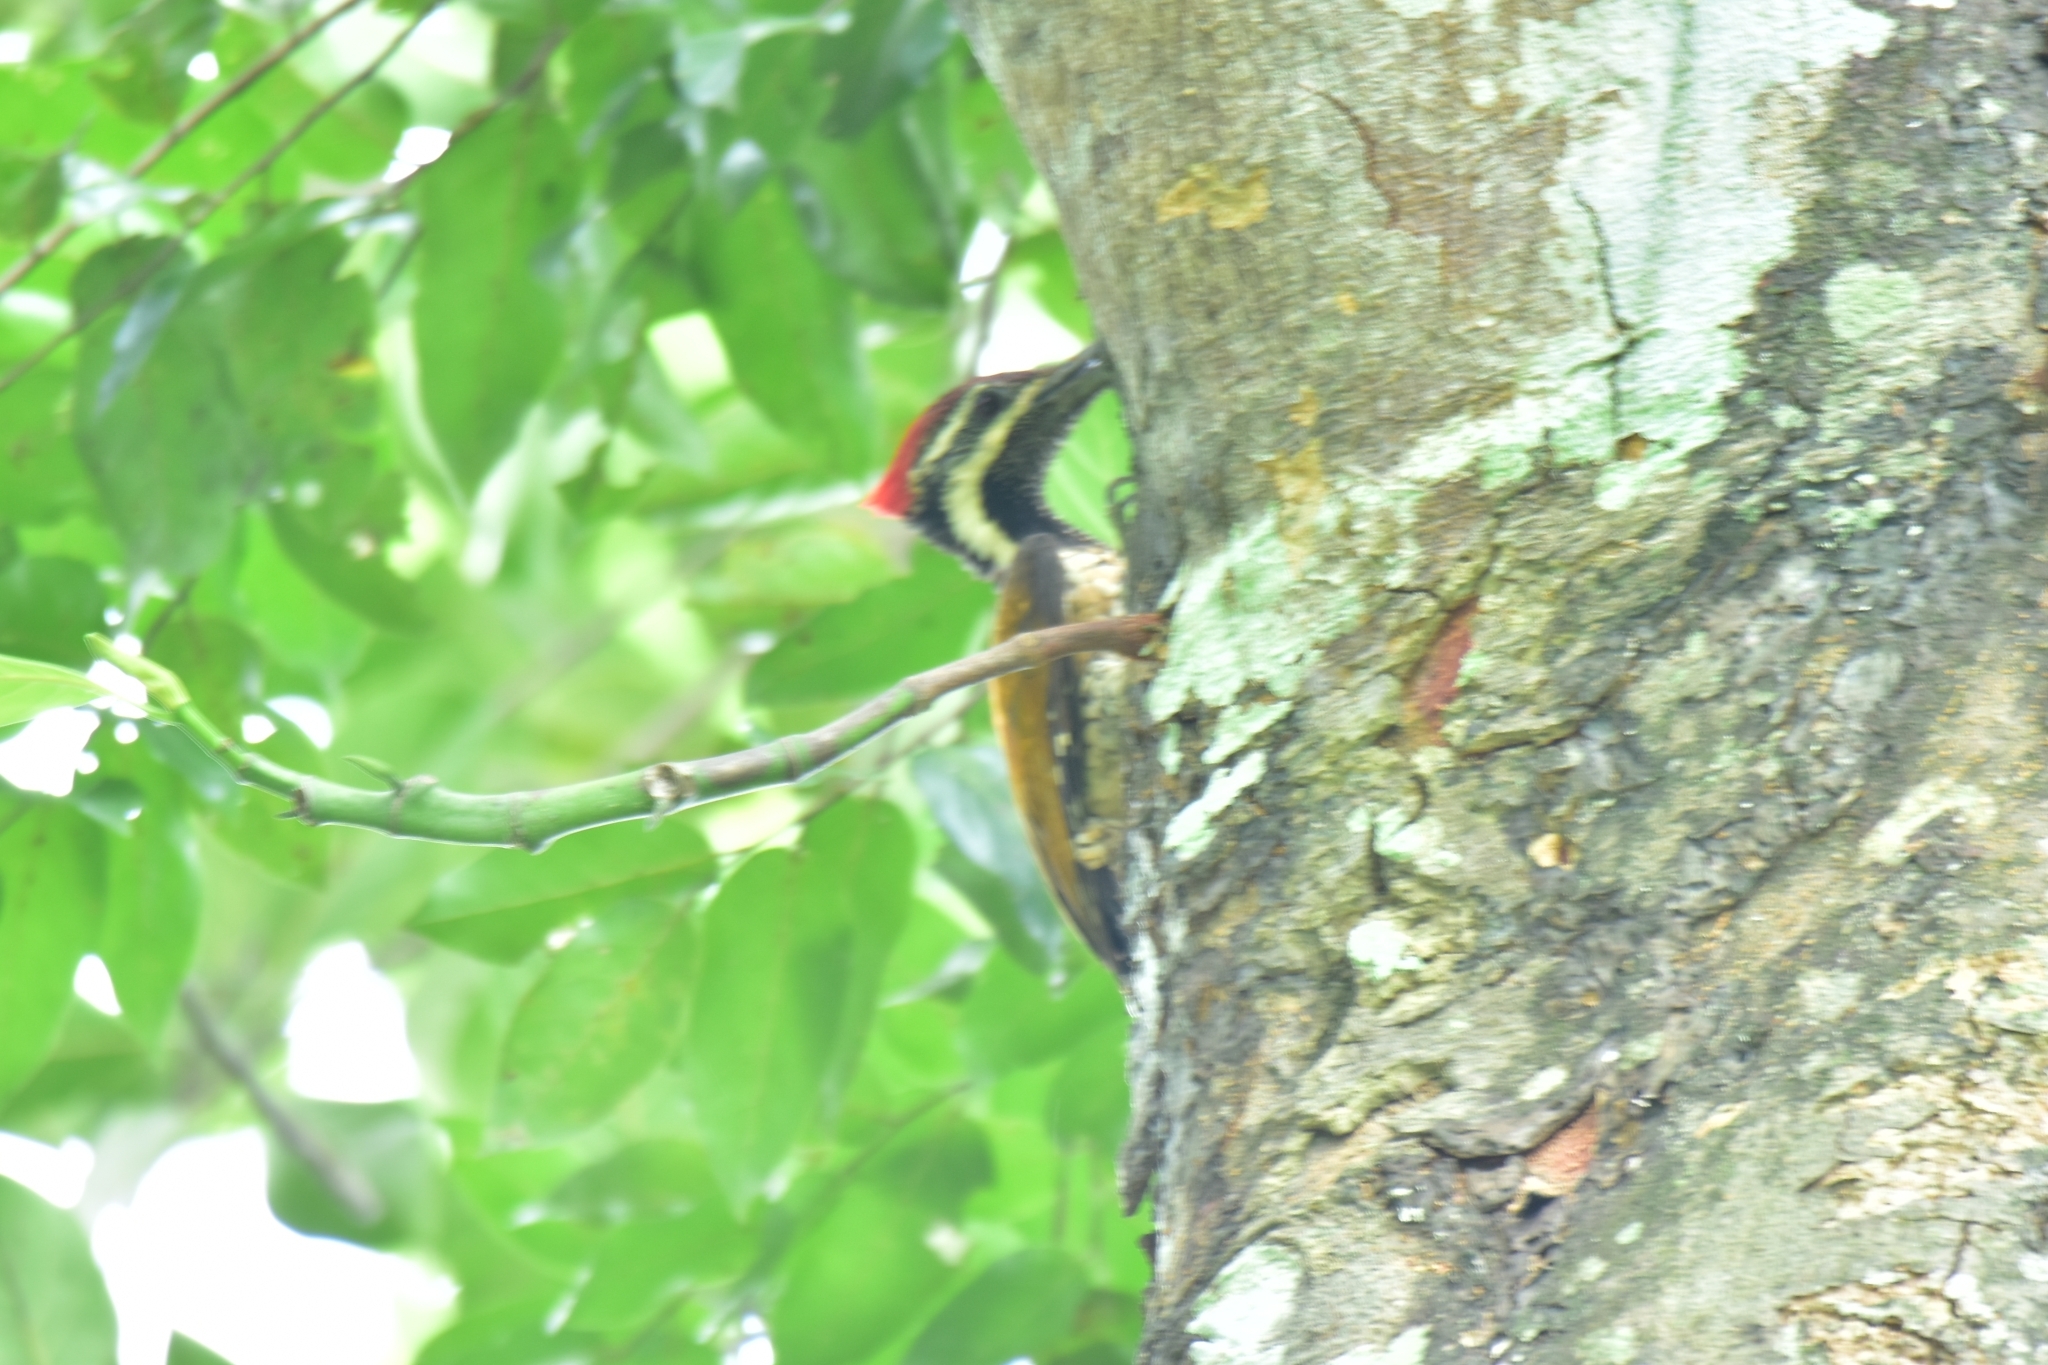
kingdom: Animalia
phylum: Chordata
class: Aves
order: Piciformes
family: Picidae
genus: Dinopium
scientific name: Dinopium benghalense
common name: Black-rumped flameback
